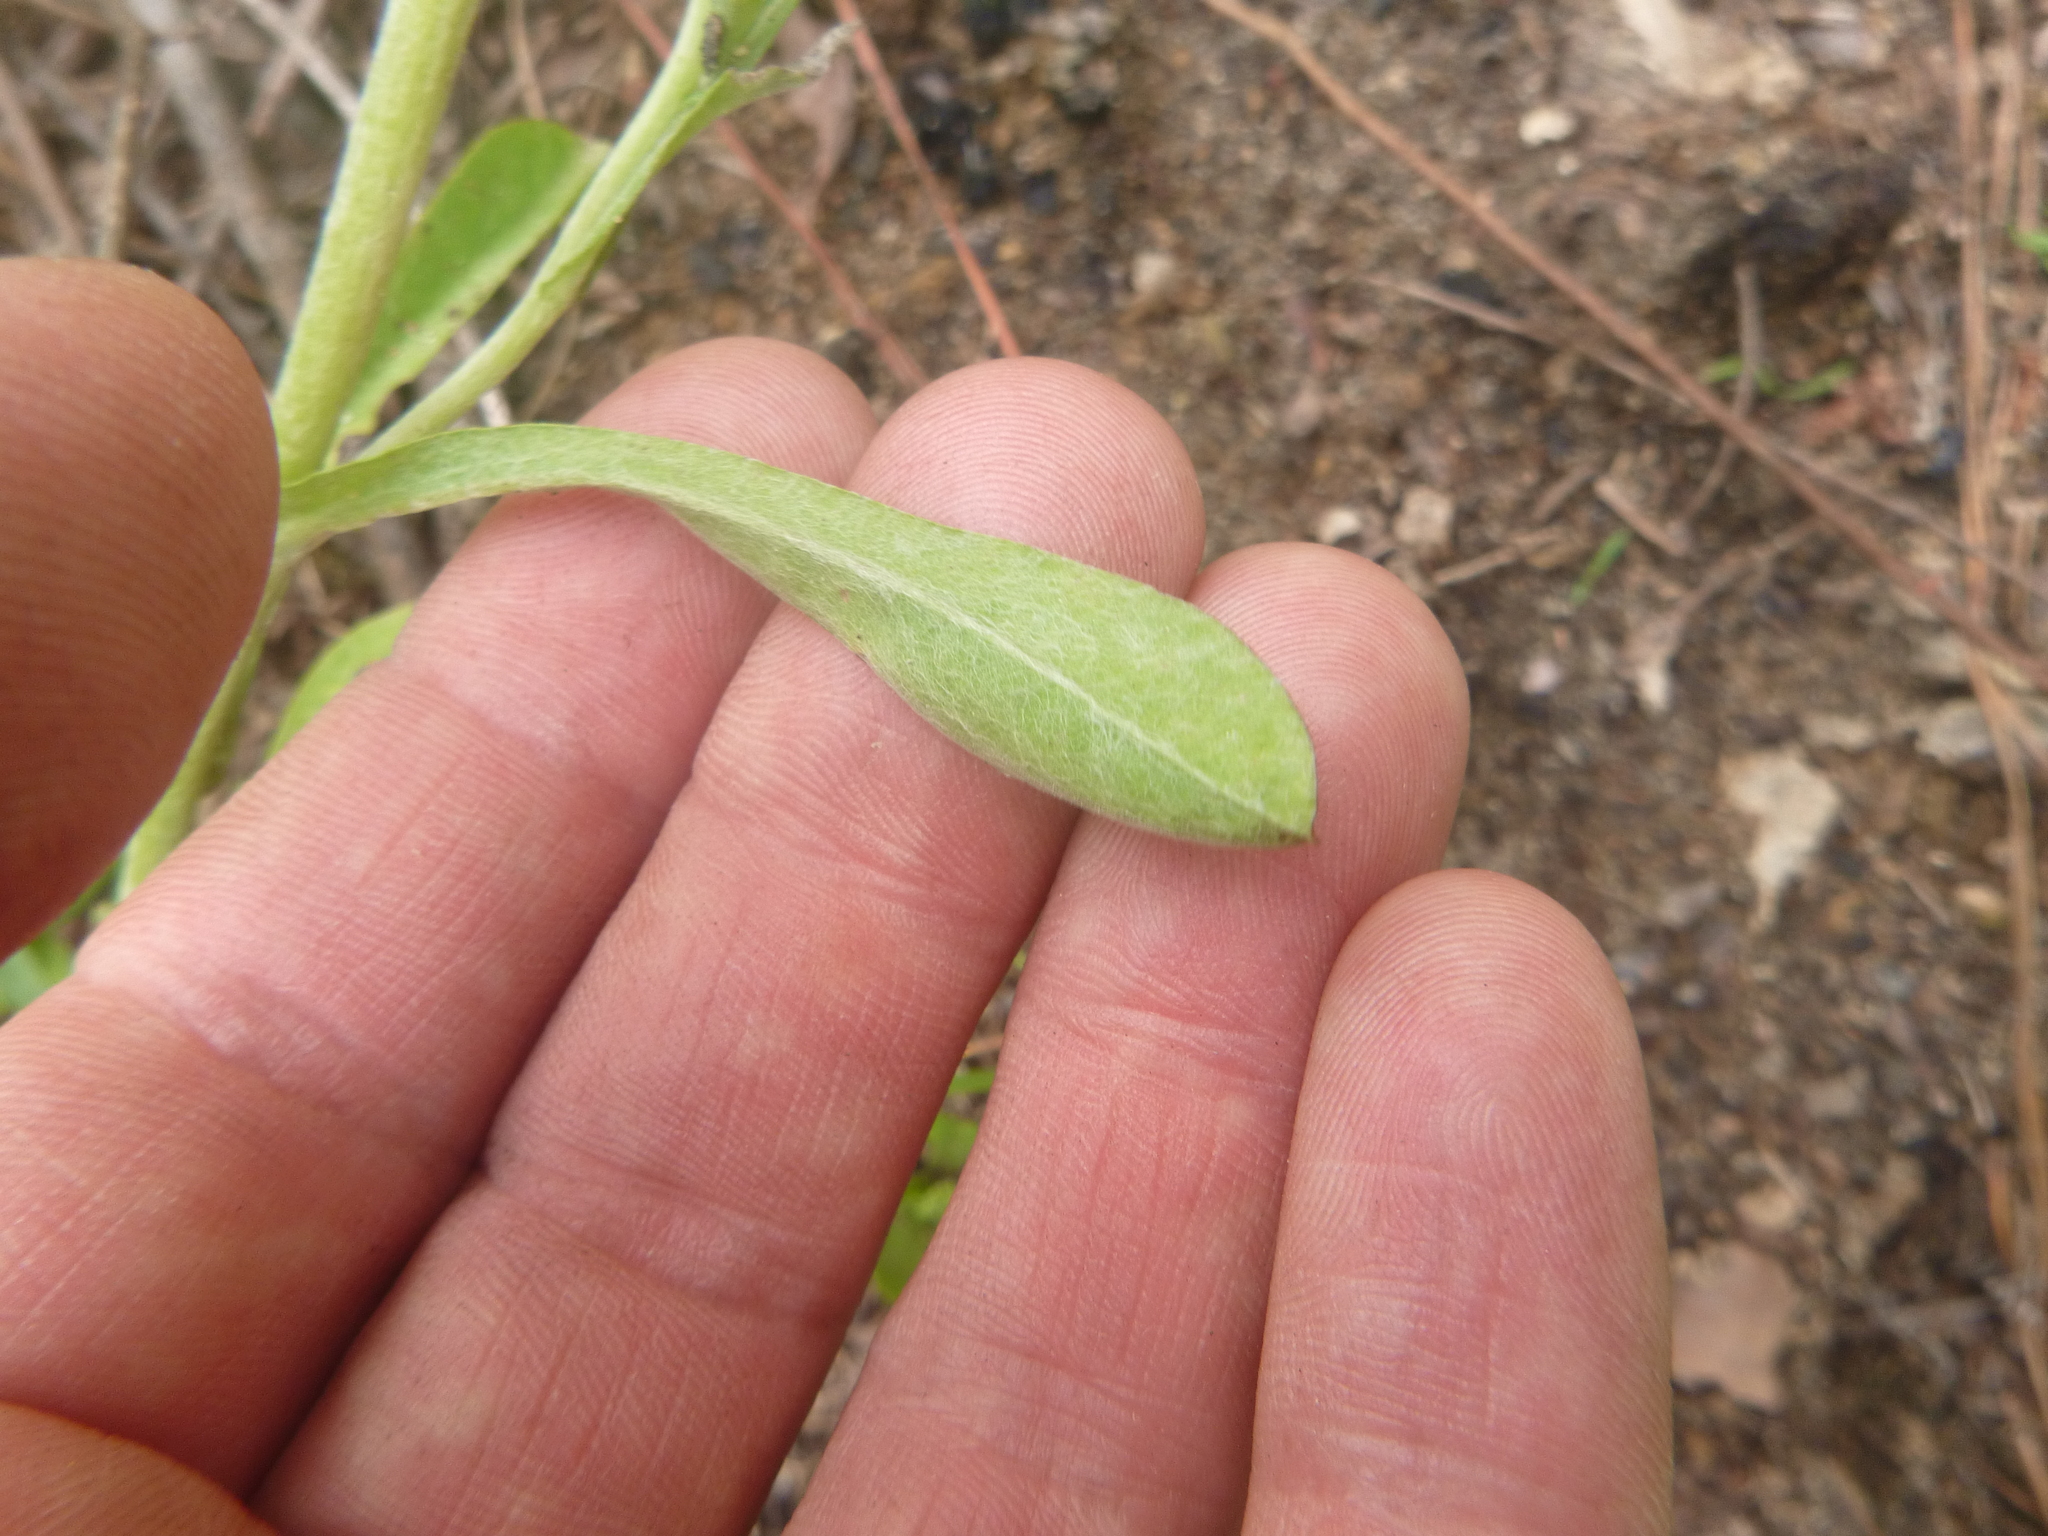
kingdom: Plantae
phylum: Tracheophyta
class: Magnoliopsida
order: Asterales
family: Asteraceae
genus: Gamochaeta
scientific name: Gamochaeta pensylvanica
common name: Pennsylvania everlasting
